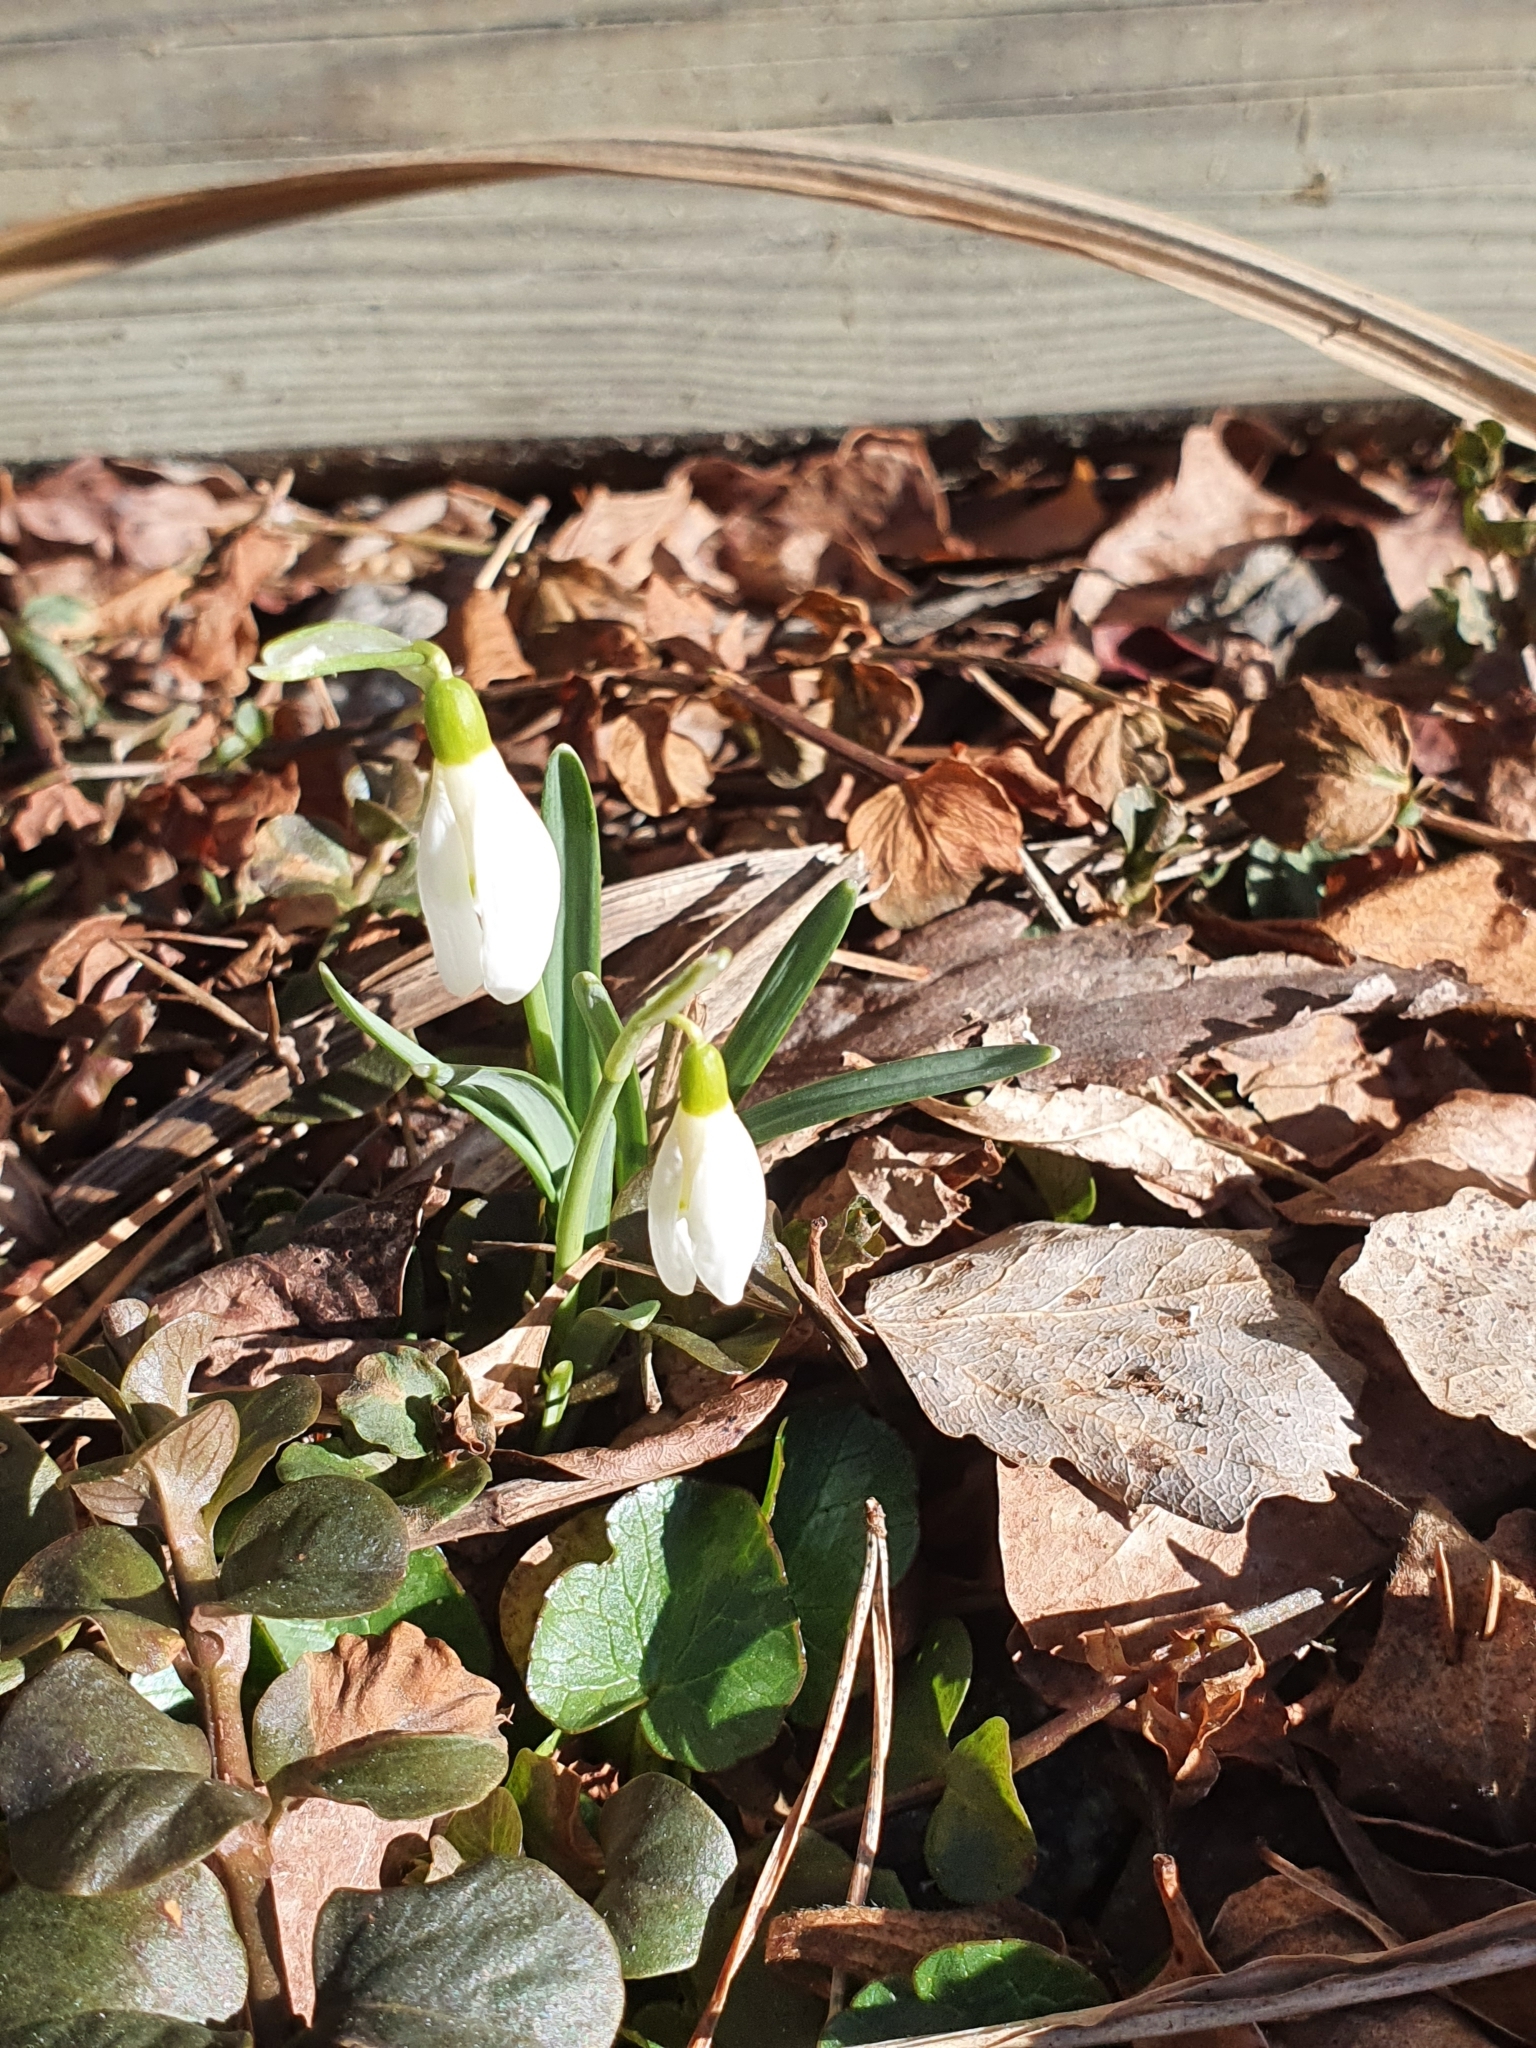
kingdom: Plantae
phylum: Tracheophyta
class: Liliopsida
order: Asparagales
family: Amaryllidaceae
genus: Galanthus
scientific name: Galanthus nivalis
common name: Snowdrop
